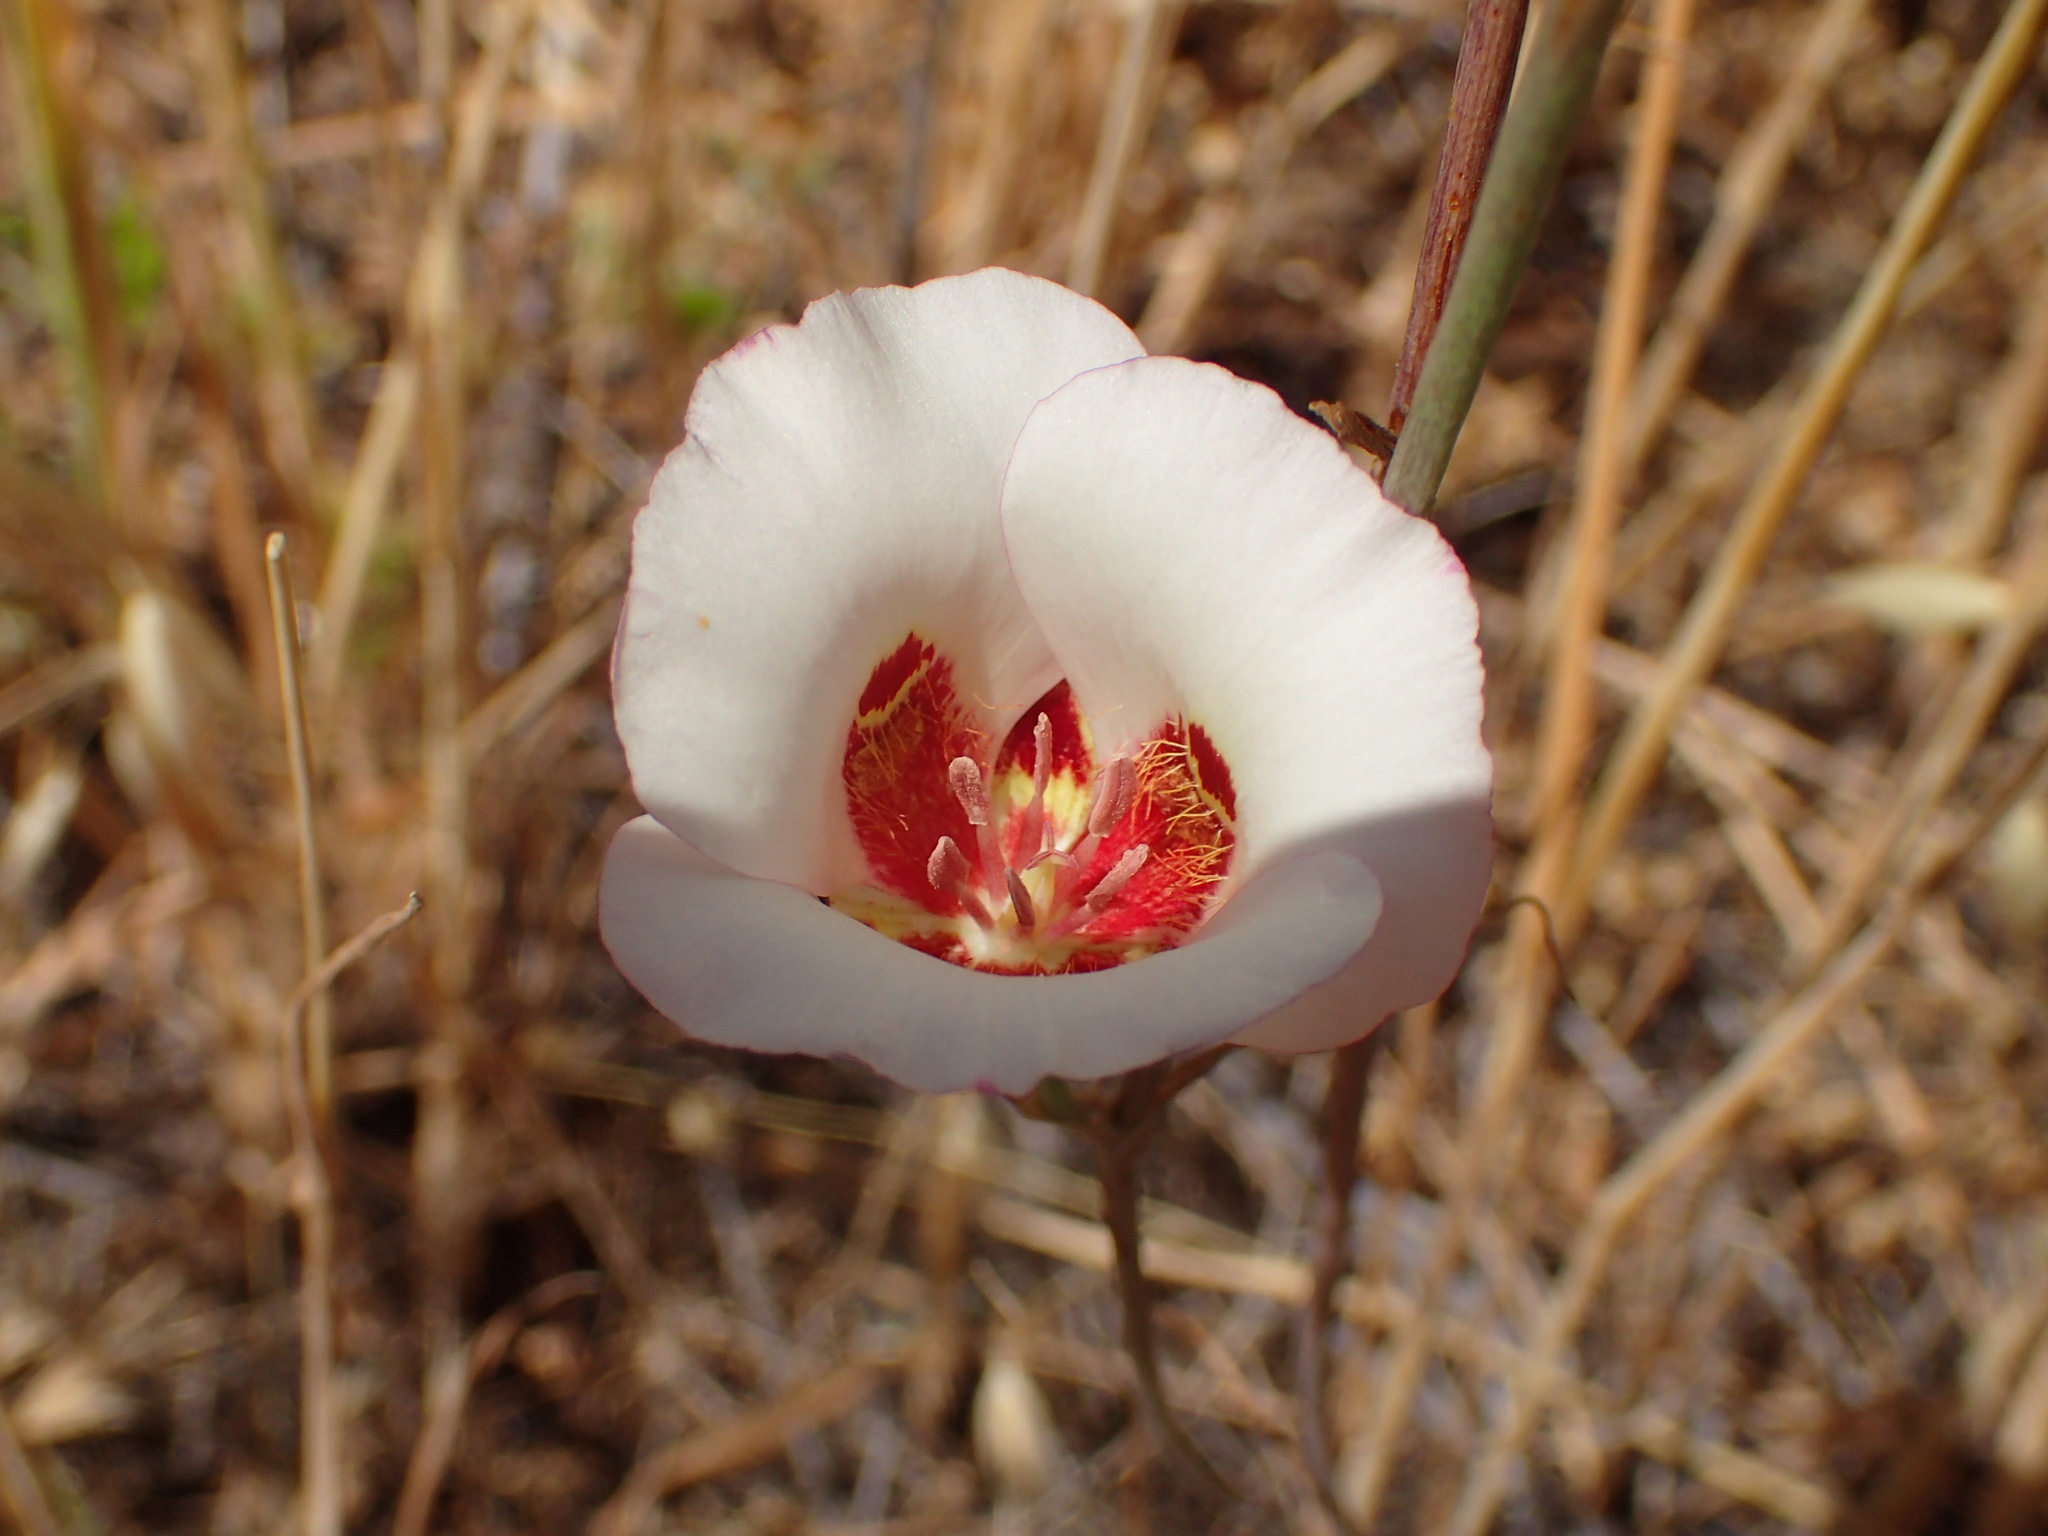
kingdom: Plantae
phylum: Tracheophyta
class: Liliopsida
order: Liliales
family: Liliaceae
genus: Calochortus
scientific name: Calochortus venustus
